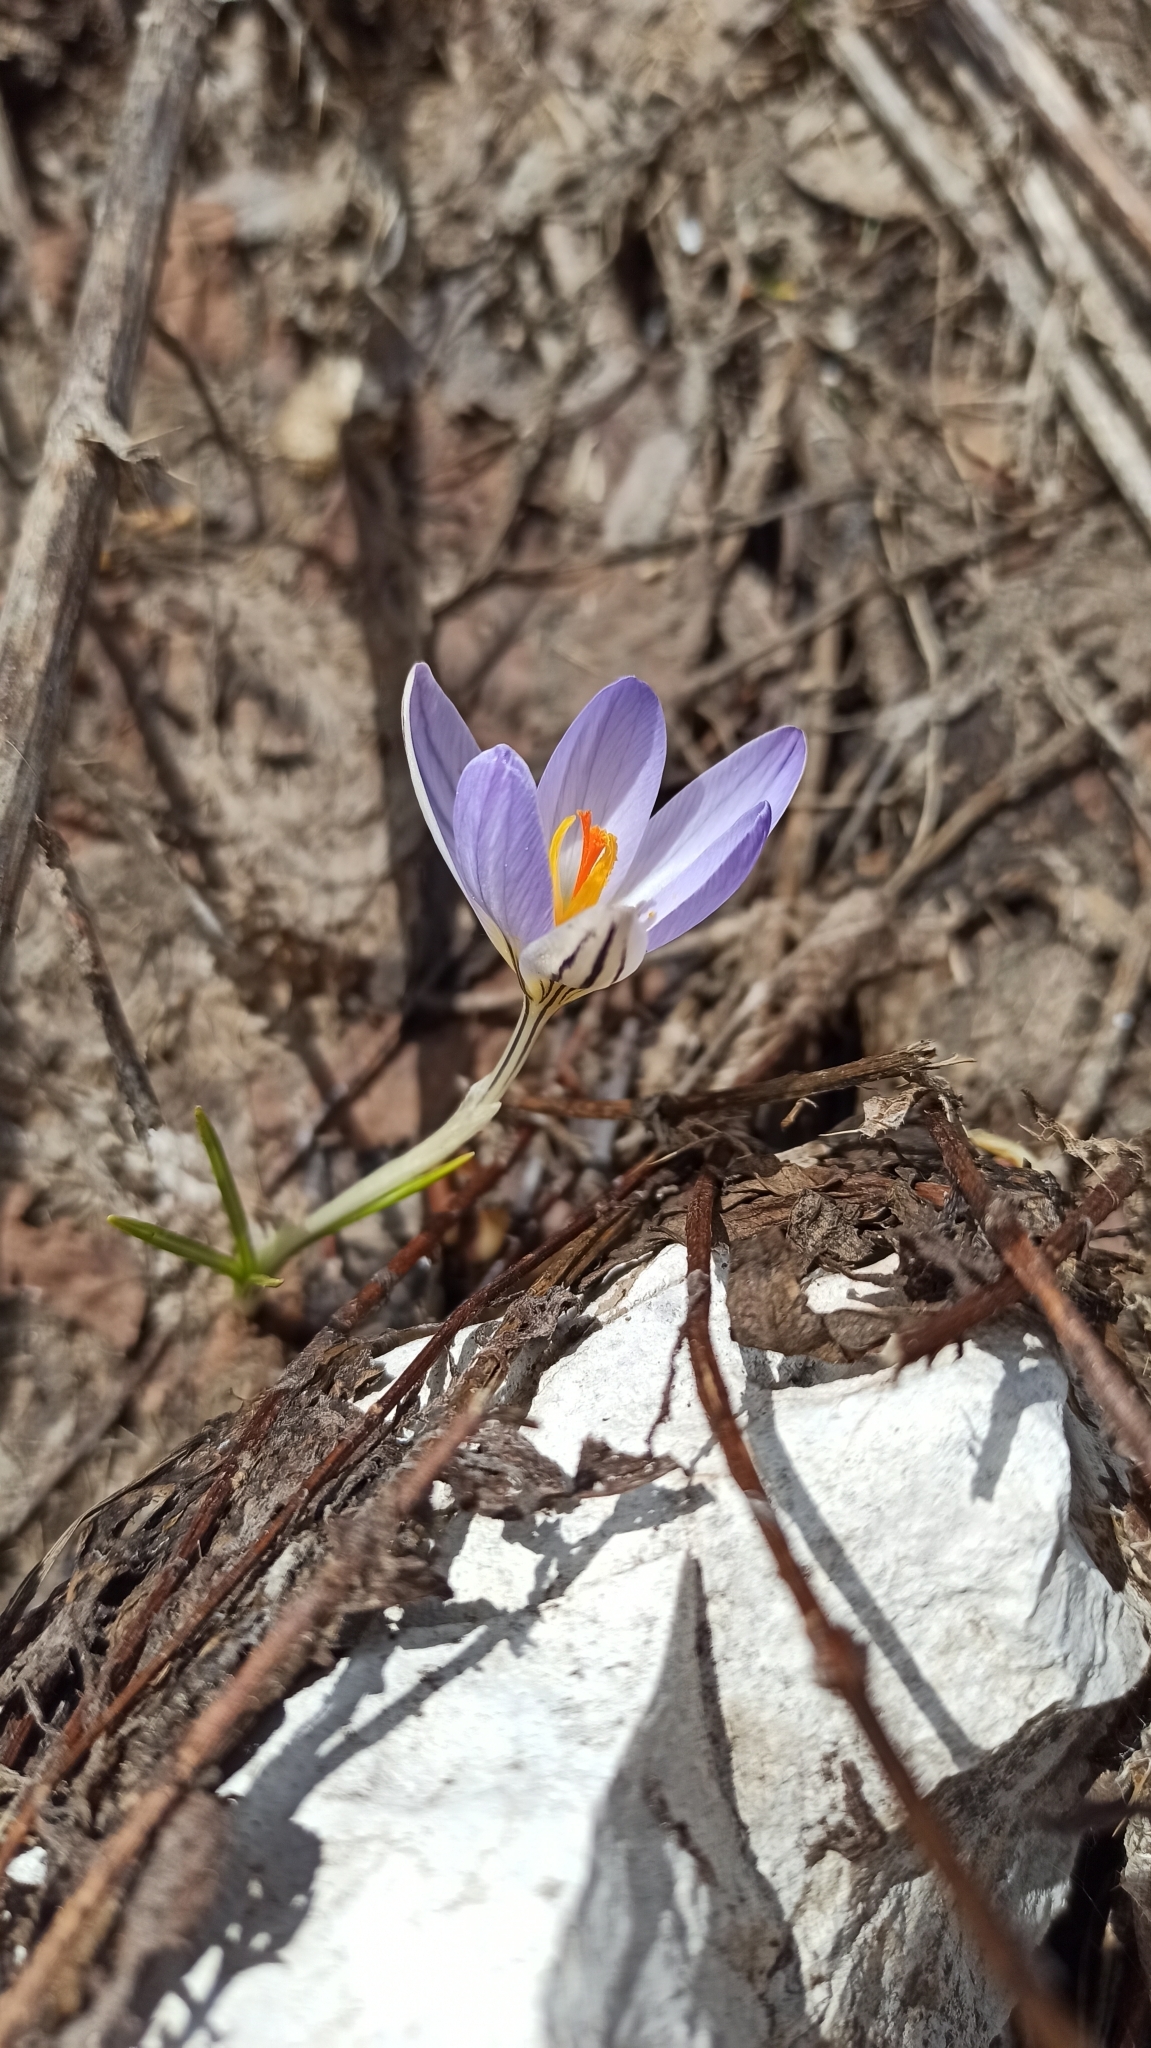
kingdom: Plantae
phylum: Tracheophyta
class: Liliopsida
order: Asparagales
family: Iridaceae
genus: Crocus
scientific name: Crocus reticulatus
